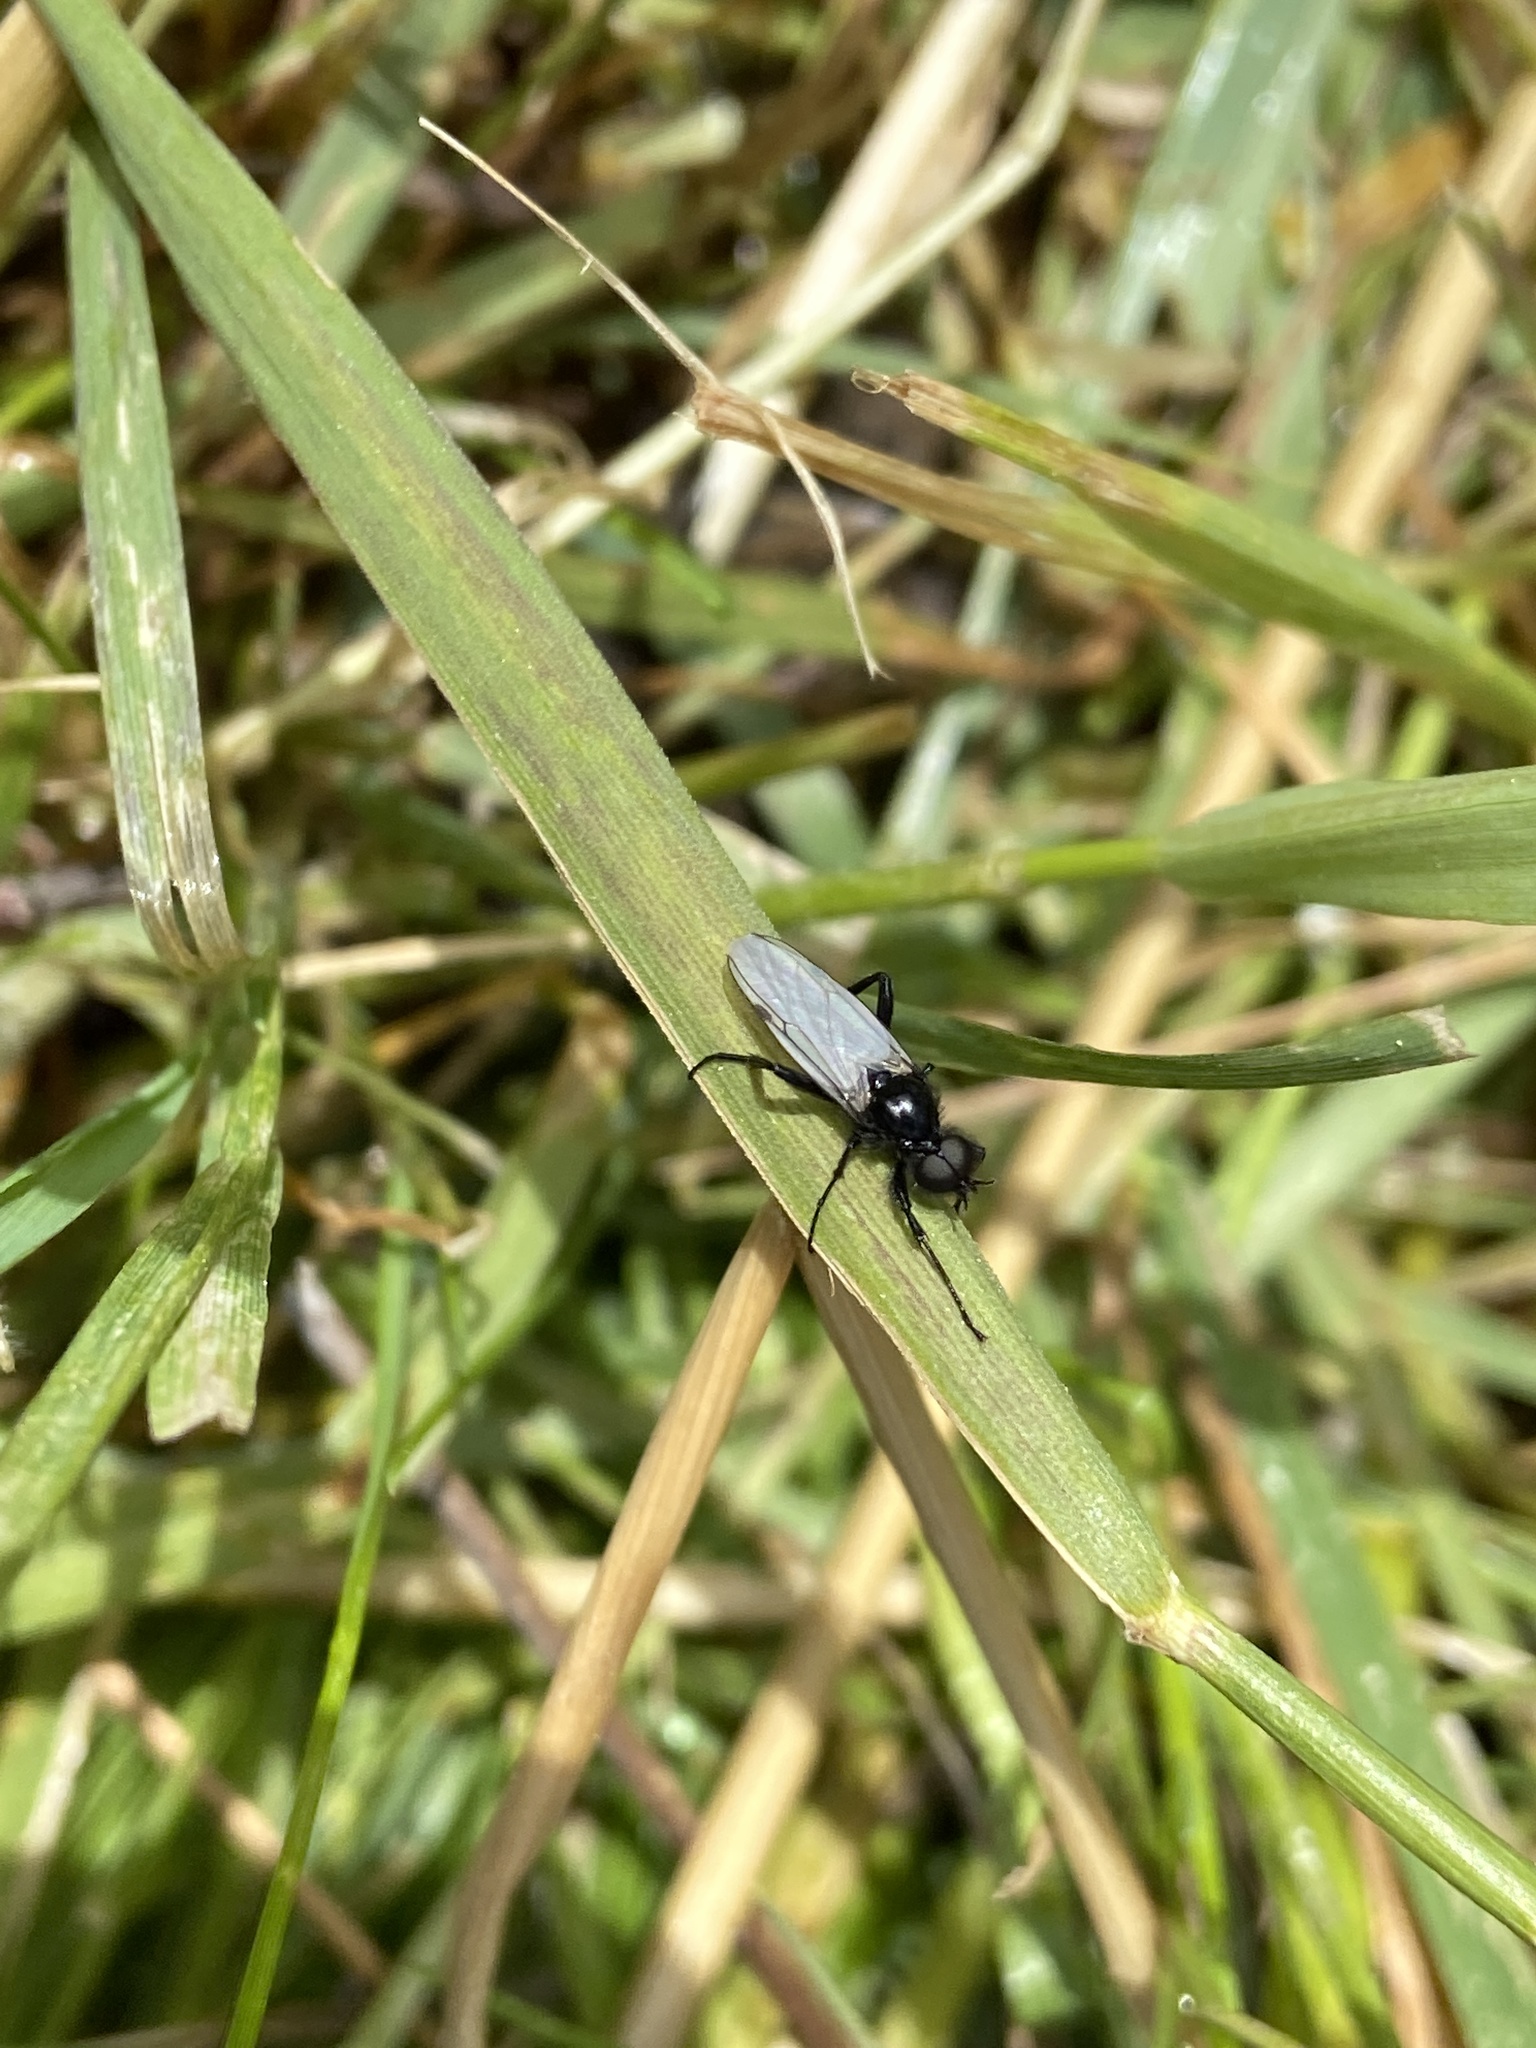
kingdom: Animalia
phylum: Arthropoda
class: Insecta
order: Diptera
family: Bibionidae
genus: Bibio
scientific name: Bibio leucoptera
